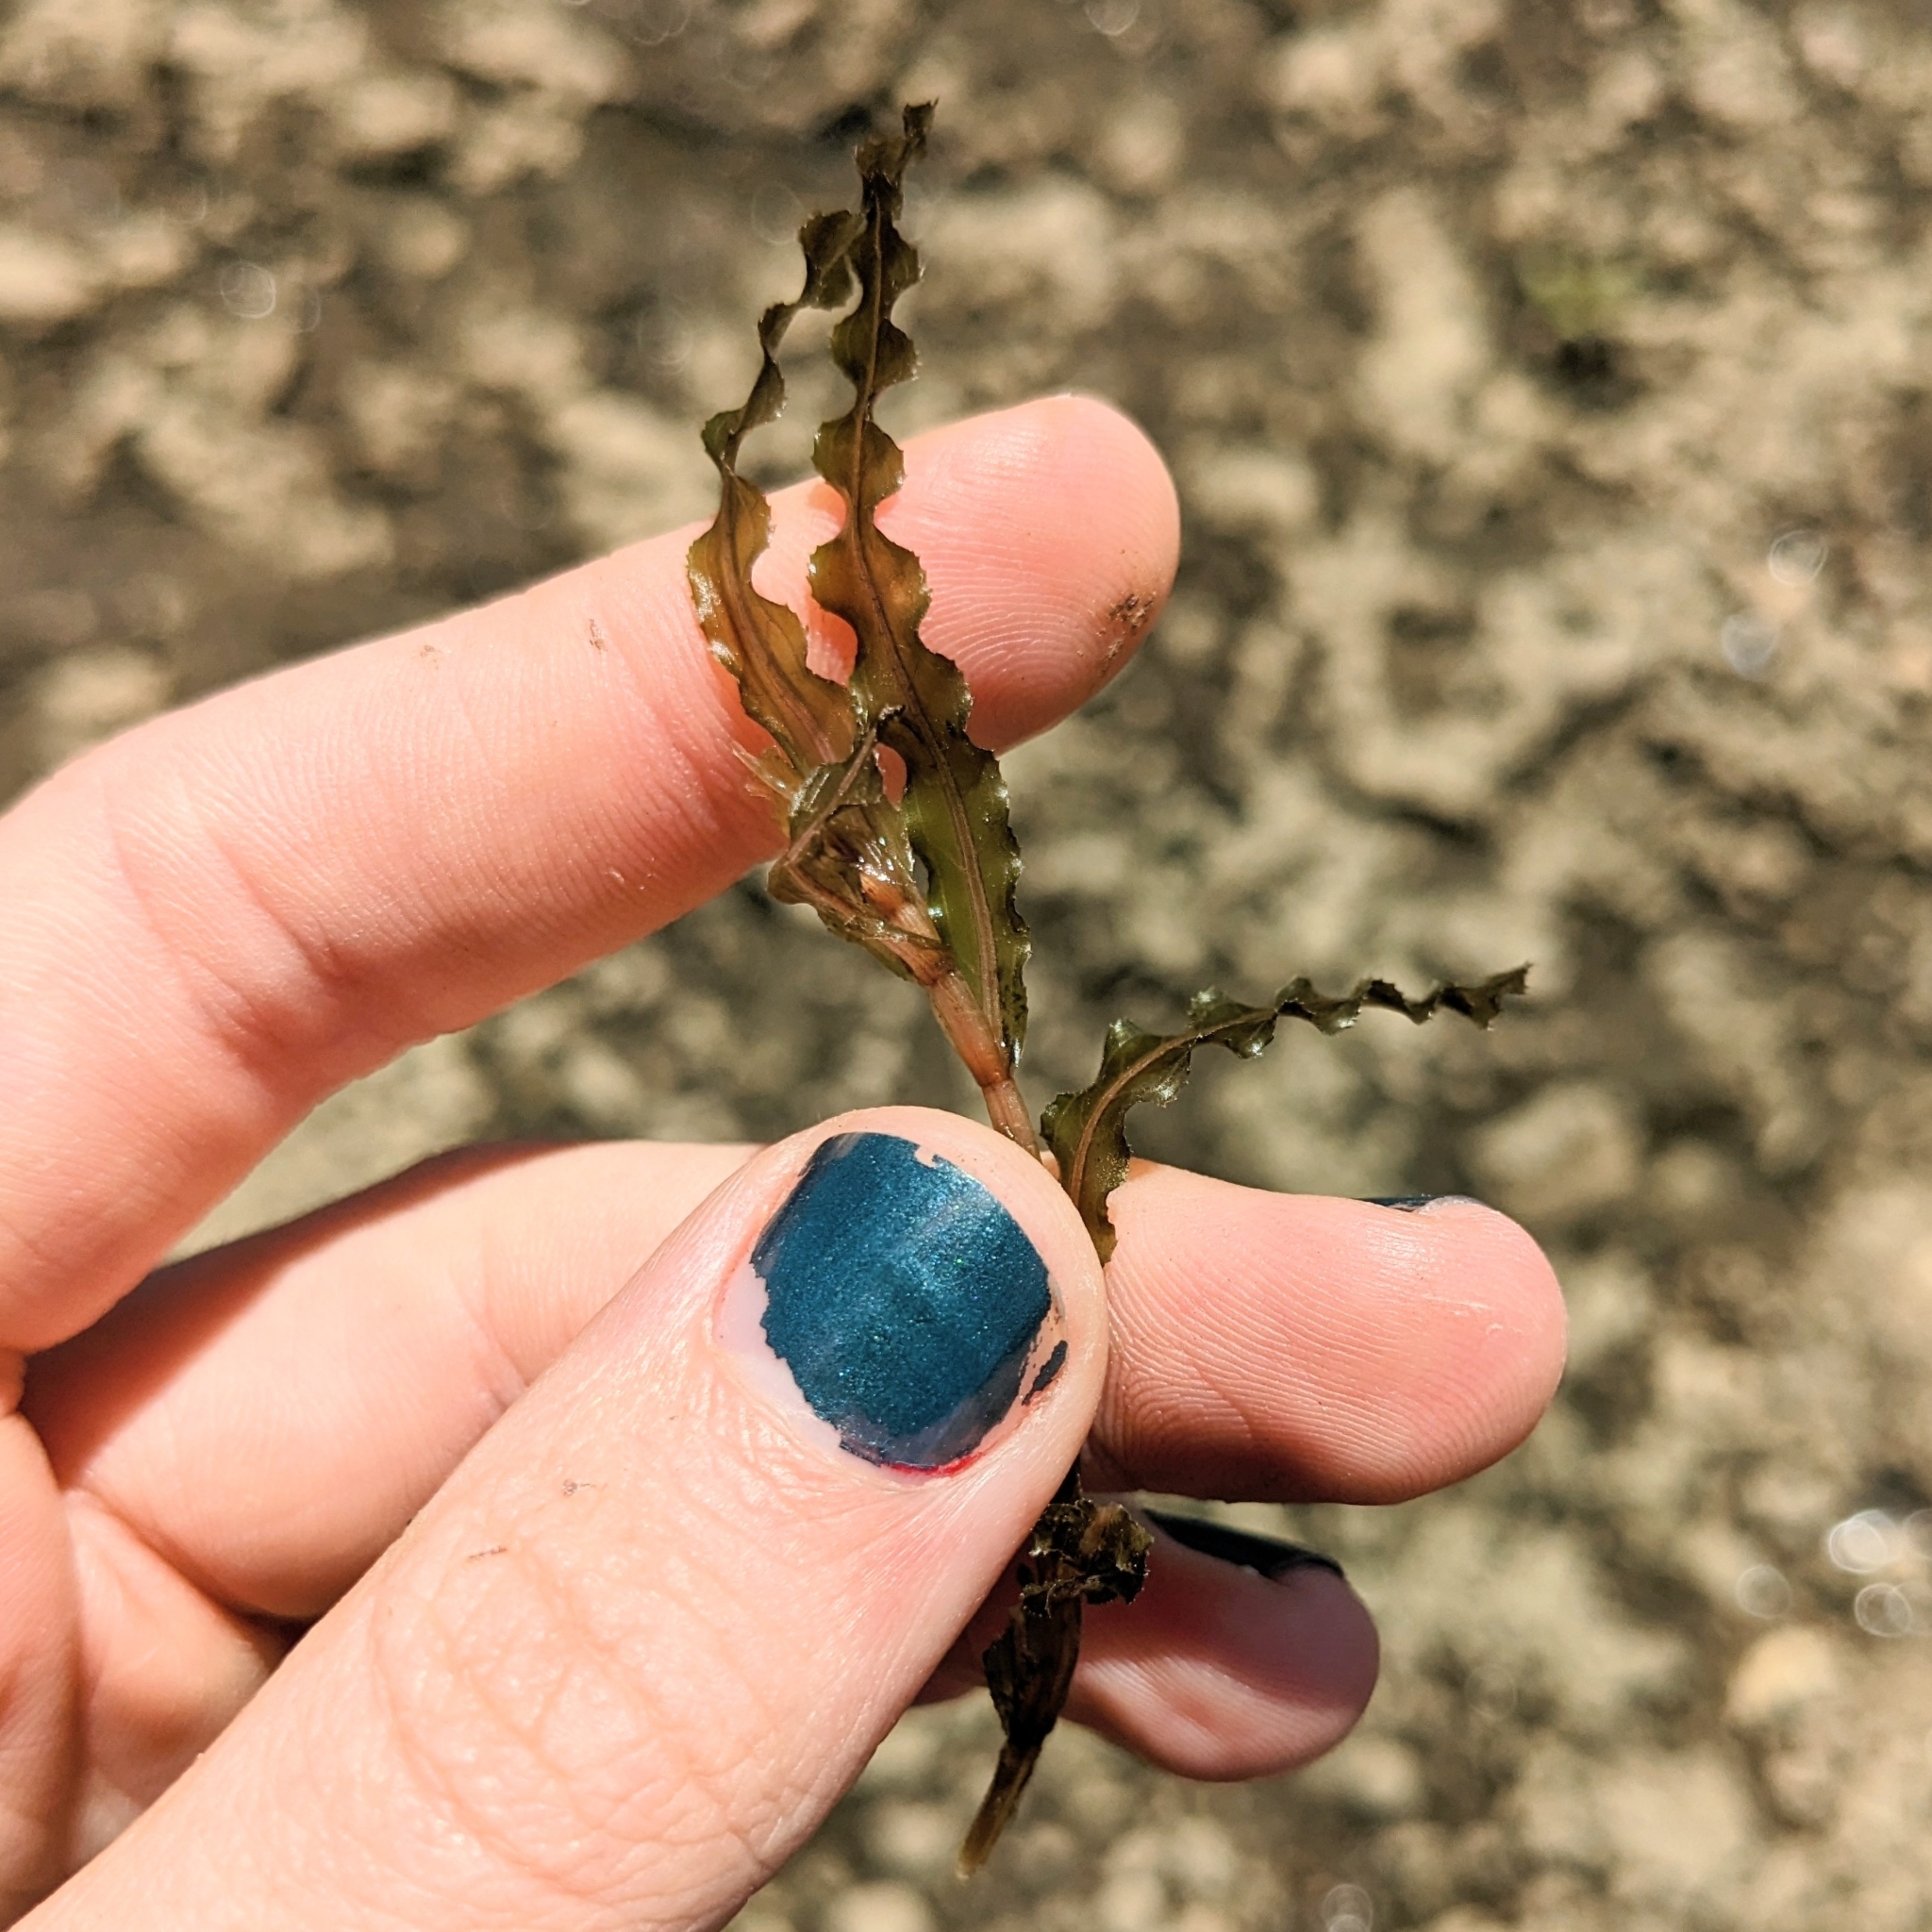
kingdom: Plantae
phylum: Tracheophyta
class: Liliopsida
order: Alismatales
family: Potamogetonaceae
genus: Potamogeton
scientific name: Potamogeton crispus
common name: Curled pondweed
